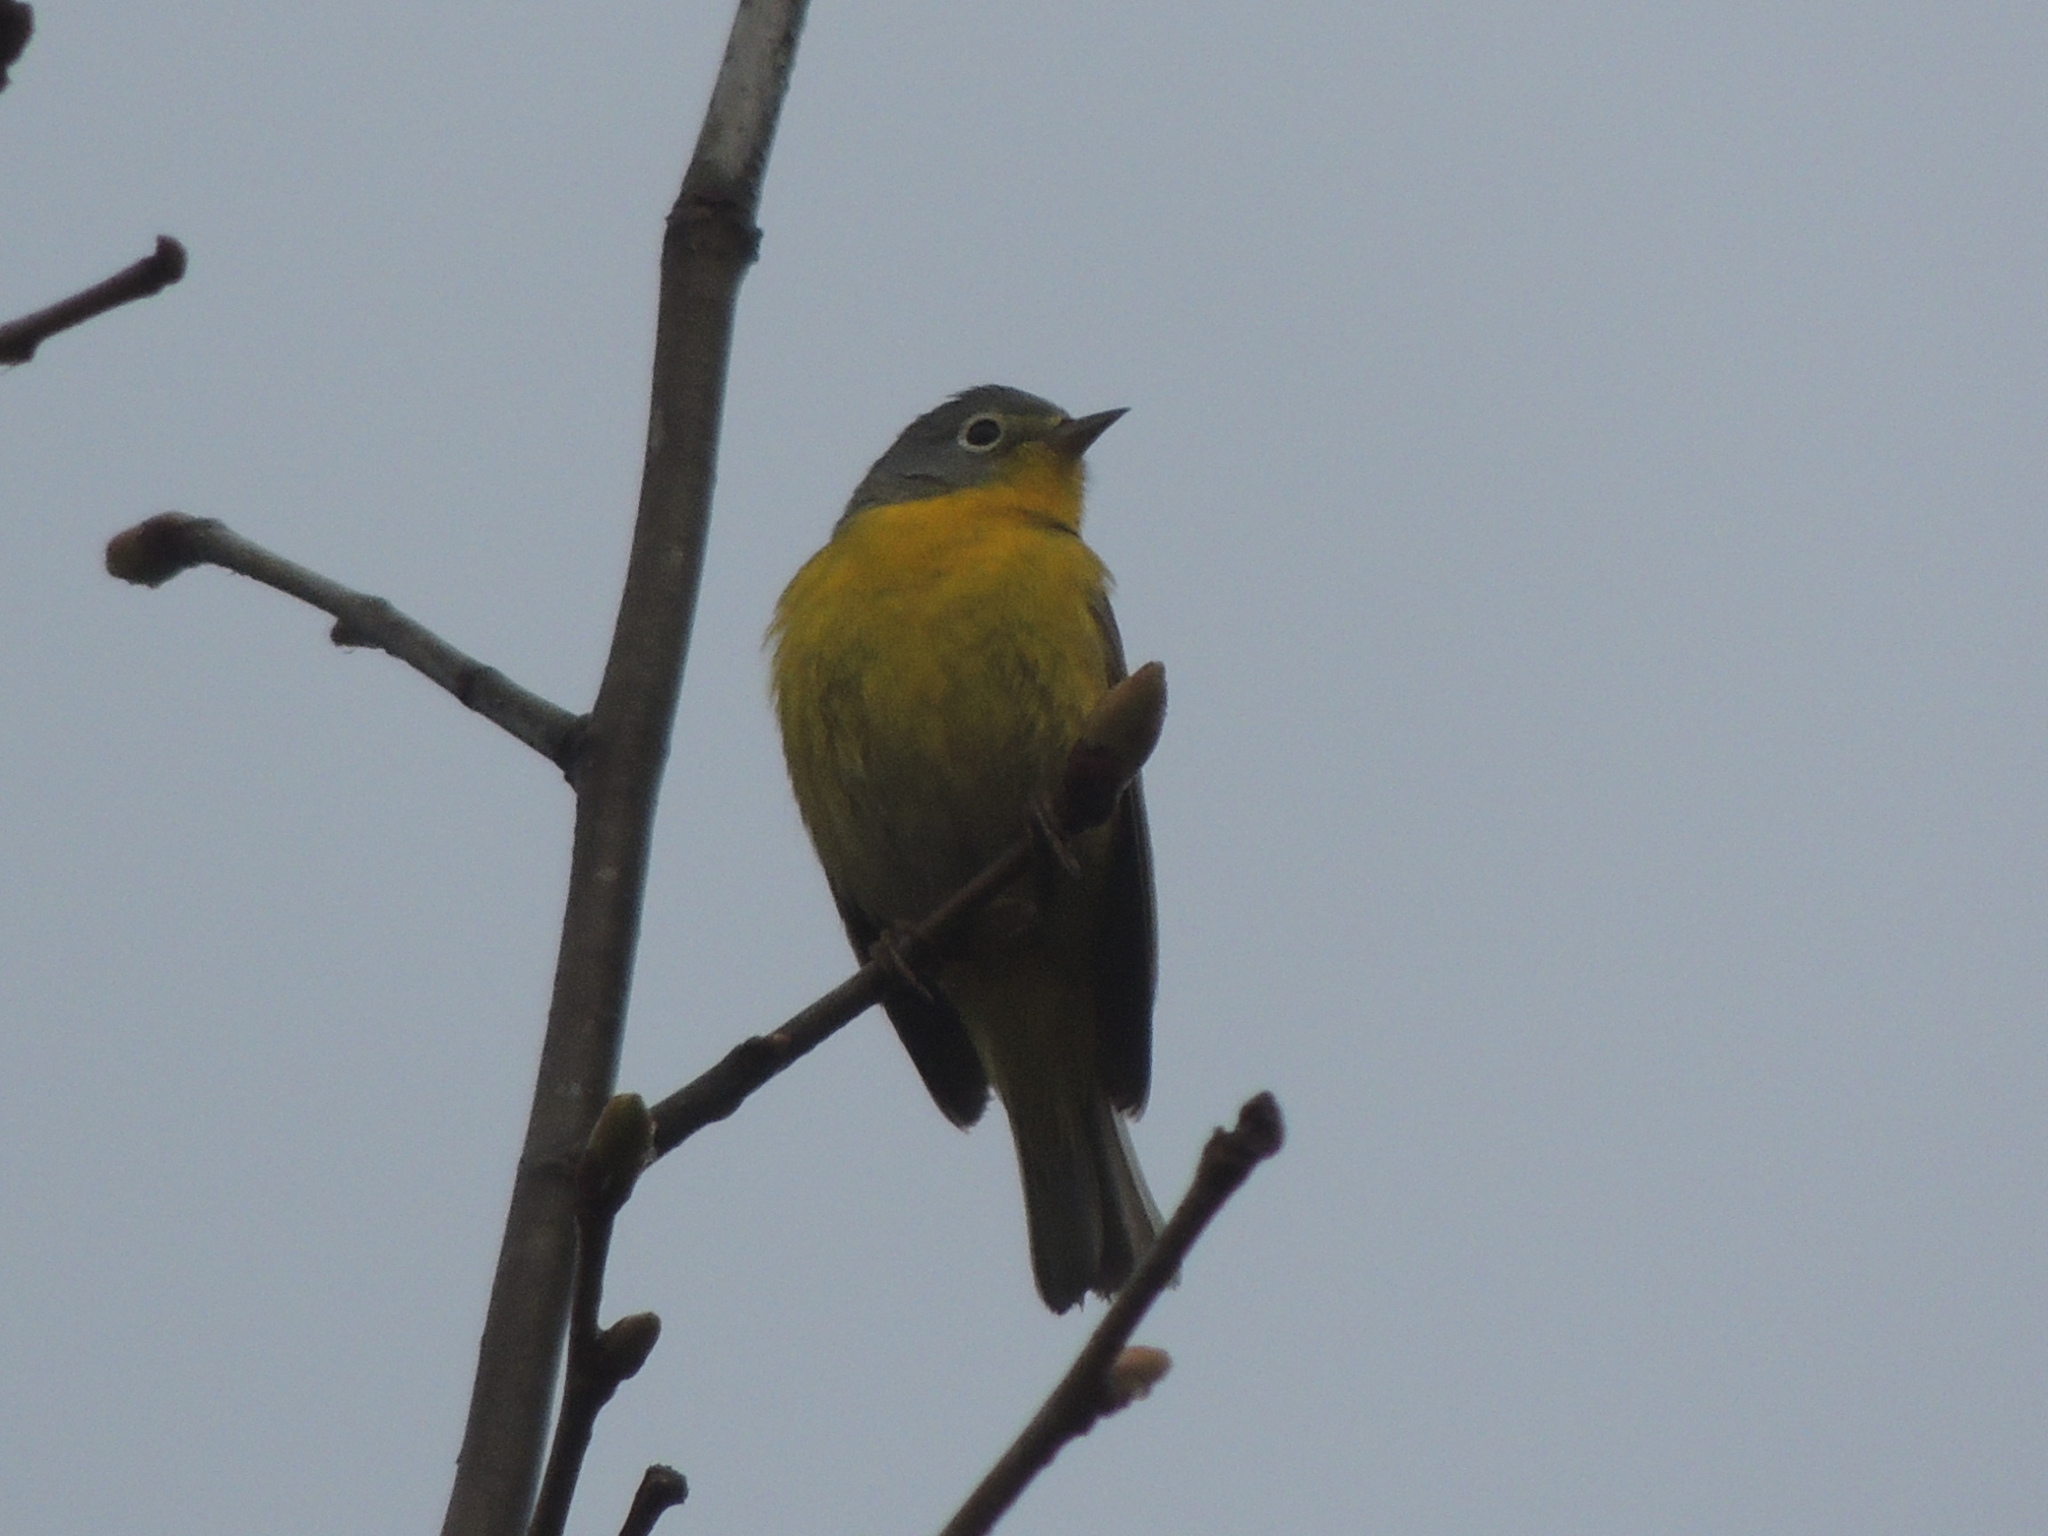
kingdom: Animalia
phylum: Chordata
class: Aves
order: Passeriformes
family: Parulidae
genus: Leiothlypis
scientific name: Leiothlypis ruficapilla
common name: Nashville warbler
